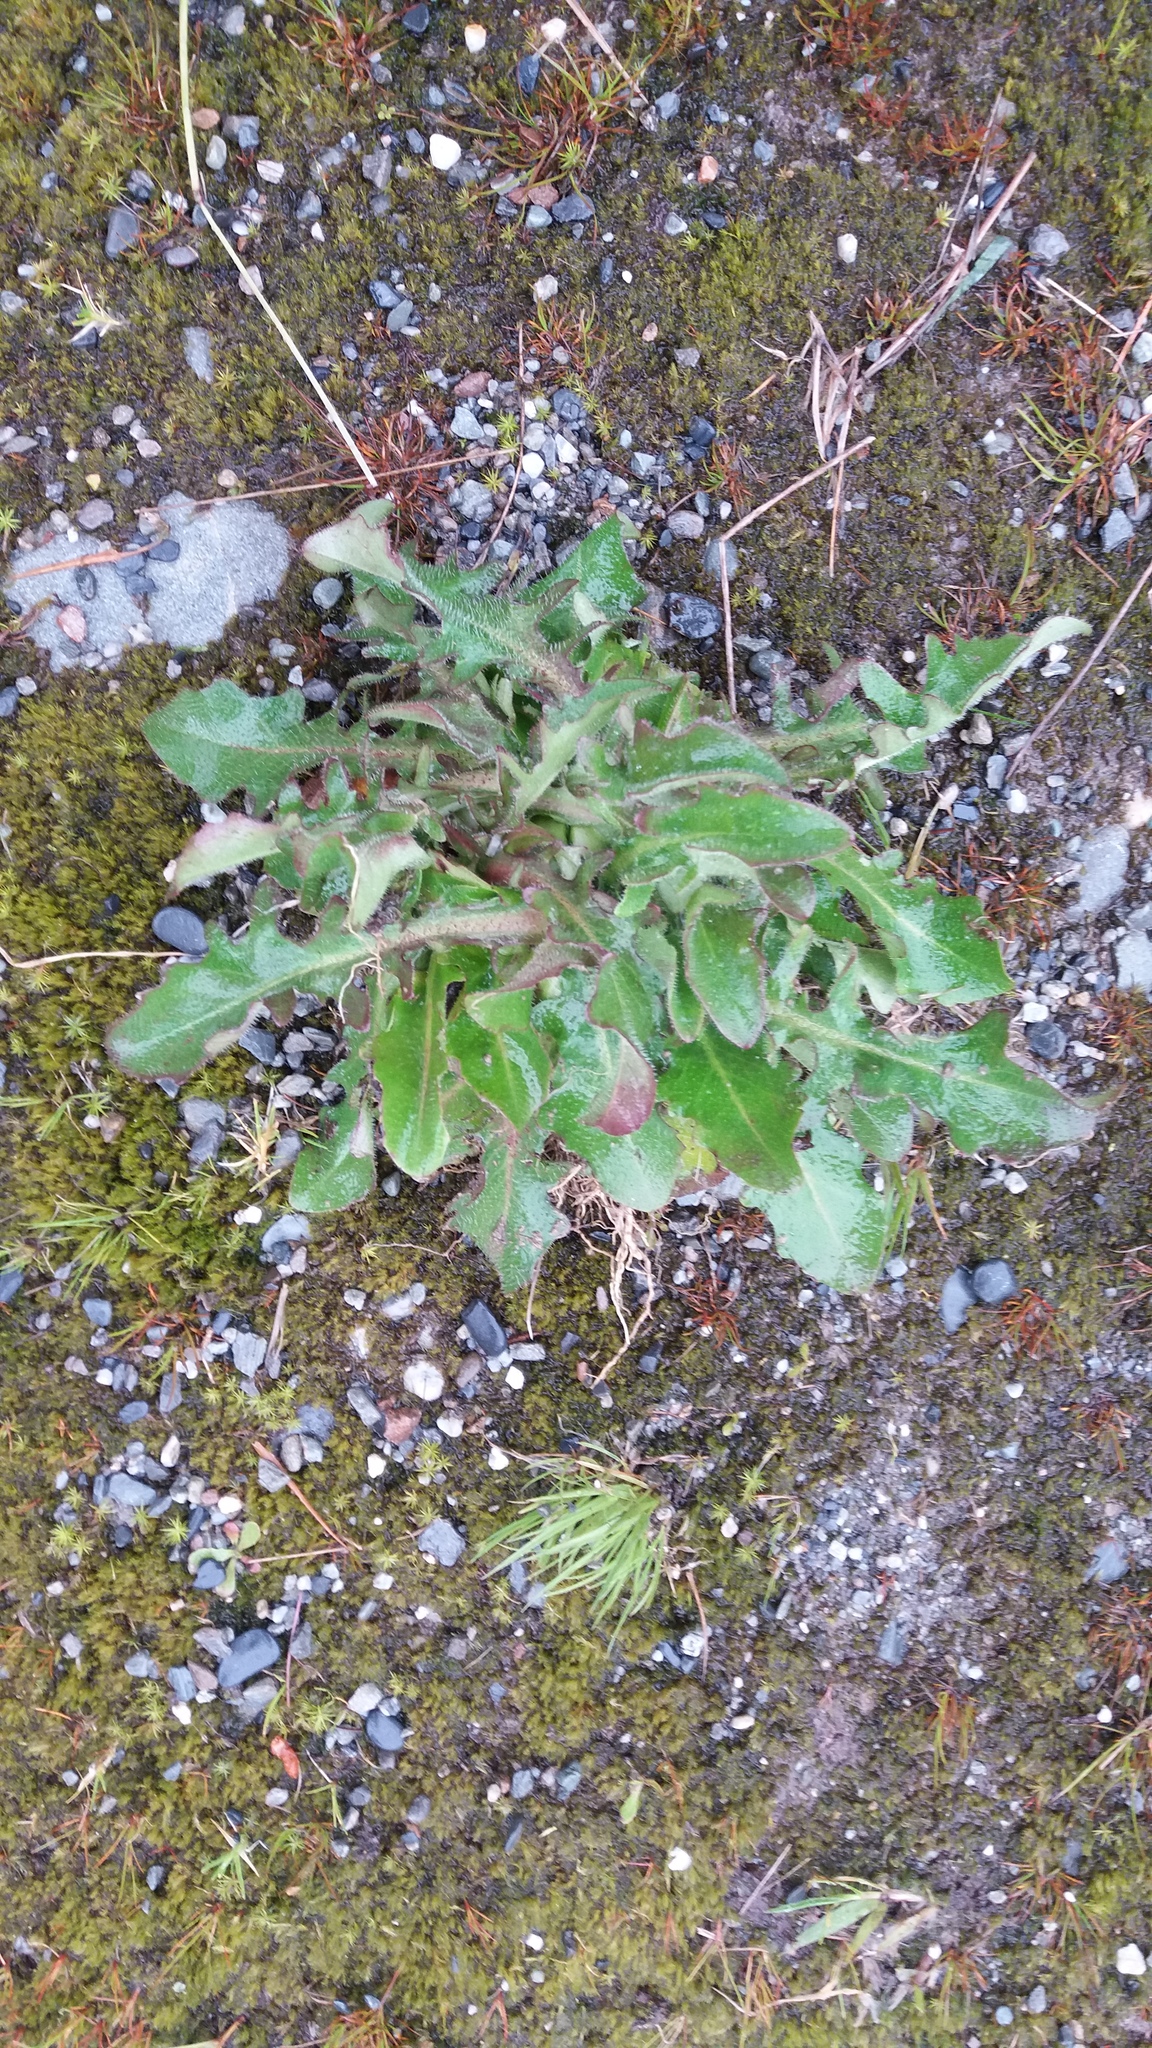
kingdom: Plantae
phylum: Tracheophyta
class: Magnoliopsida
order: Asterales
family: Asteraceae
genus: Hypochaeris
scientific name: Hypochaeris radicata
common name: Flatweed
